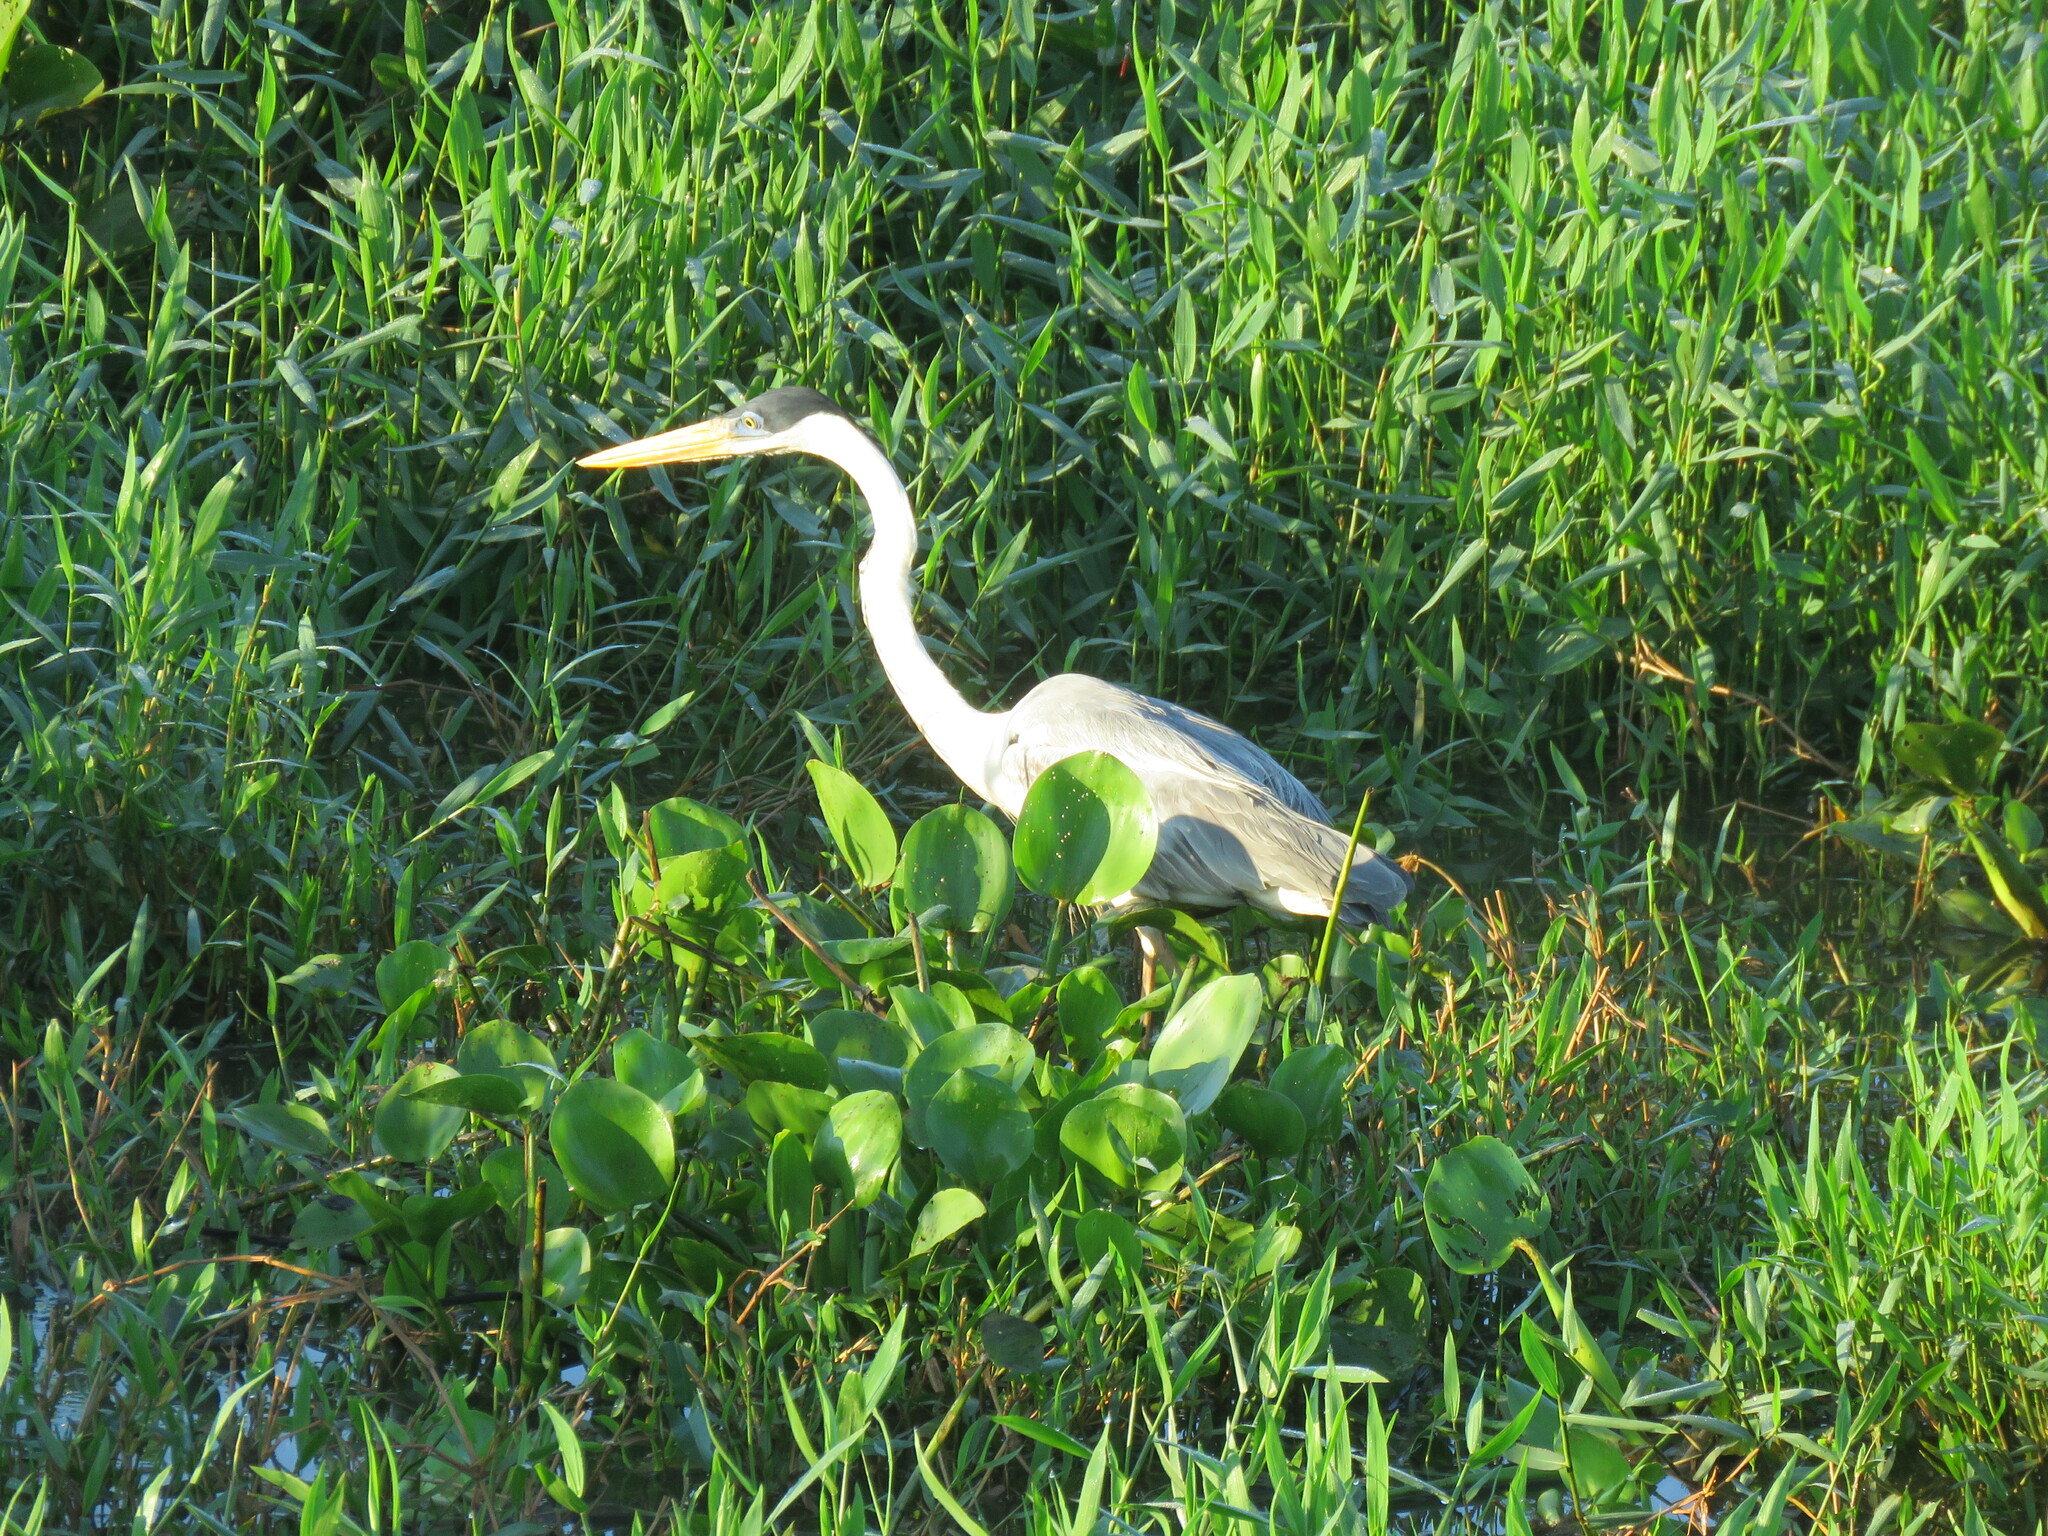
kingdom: Animalia
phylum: Chordata
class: Aves
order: Pelecaniformes
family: Ardeidae
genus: Ardea
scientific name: Ardea cocoi
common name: Cocoi heron
